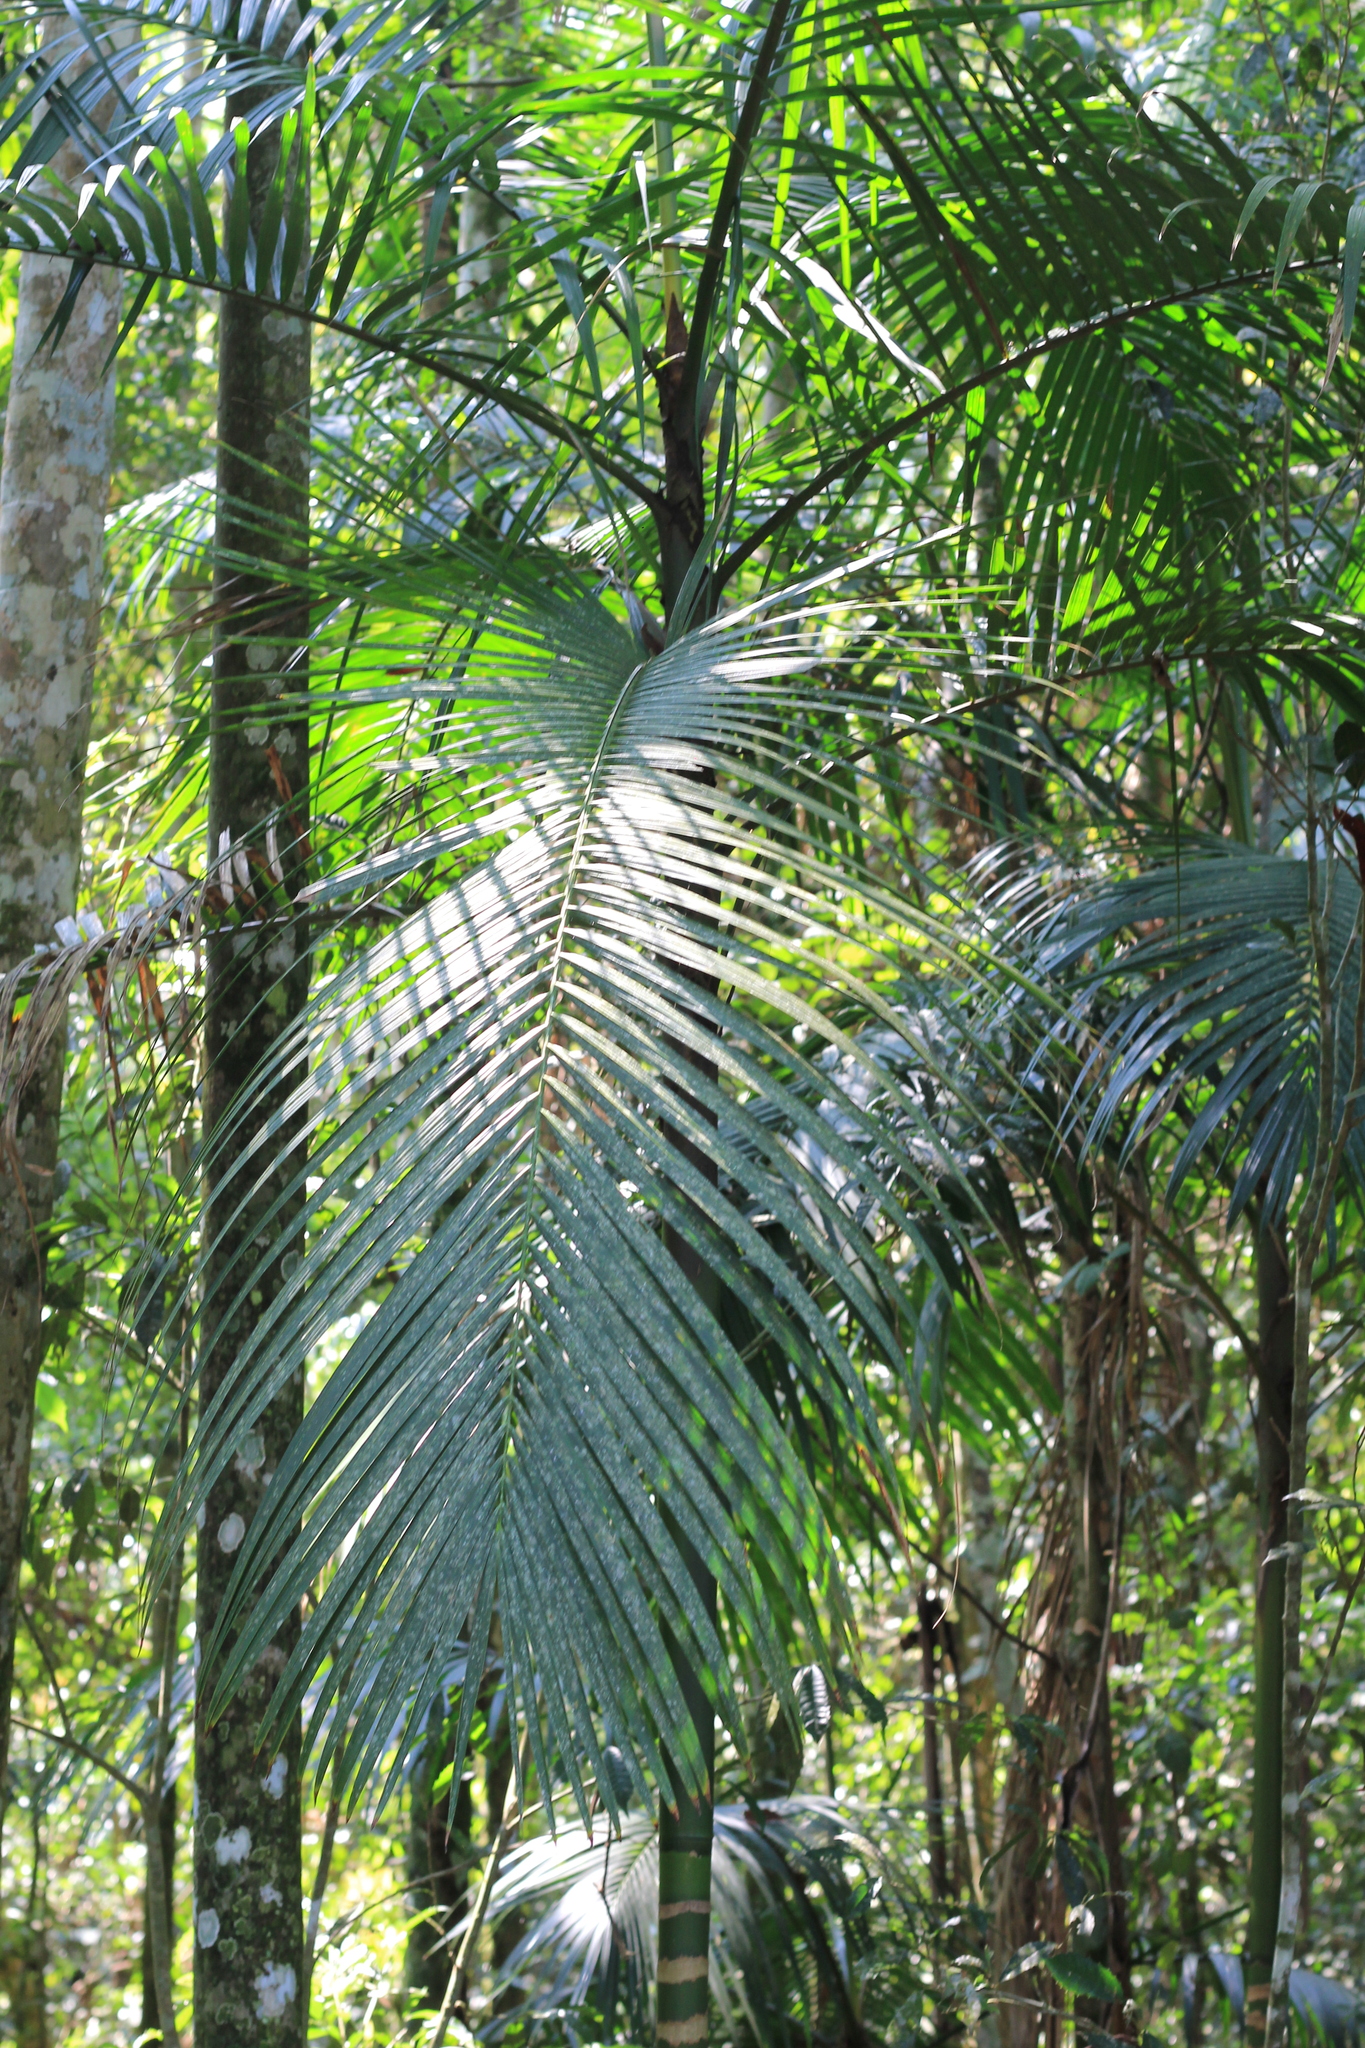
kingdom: Plantae
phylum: Tracheophyta
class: Liliopsida
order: Arecales
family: Arecaceae
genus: Euterpe
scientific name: Euterpe edulis
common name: Assai palm
